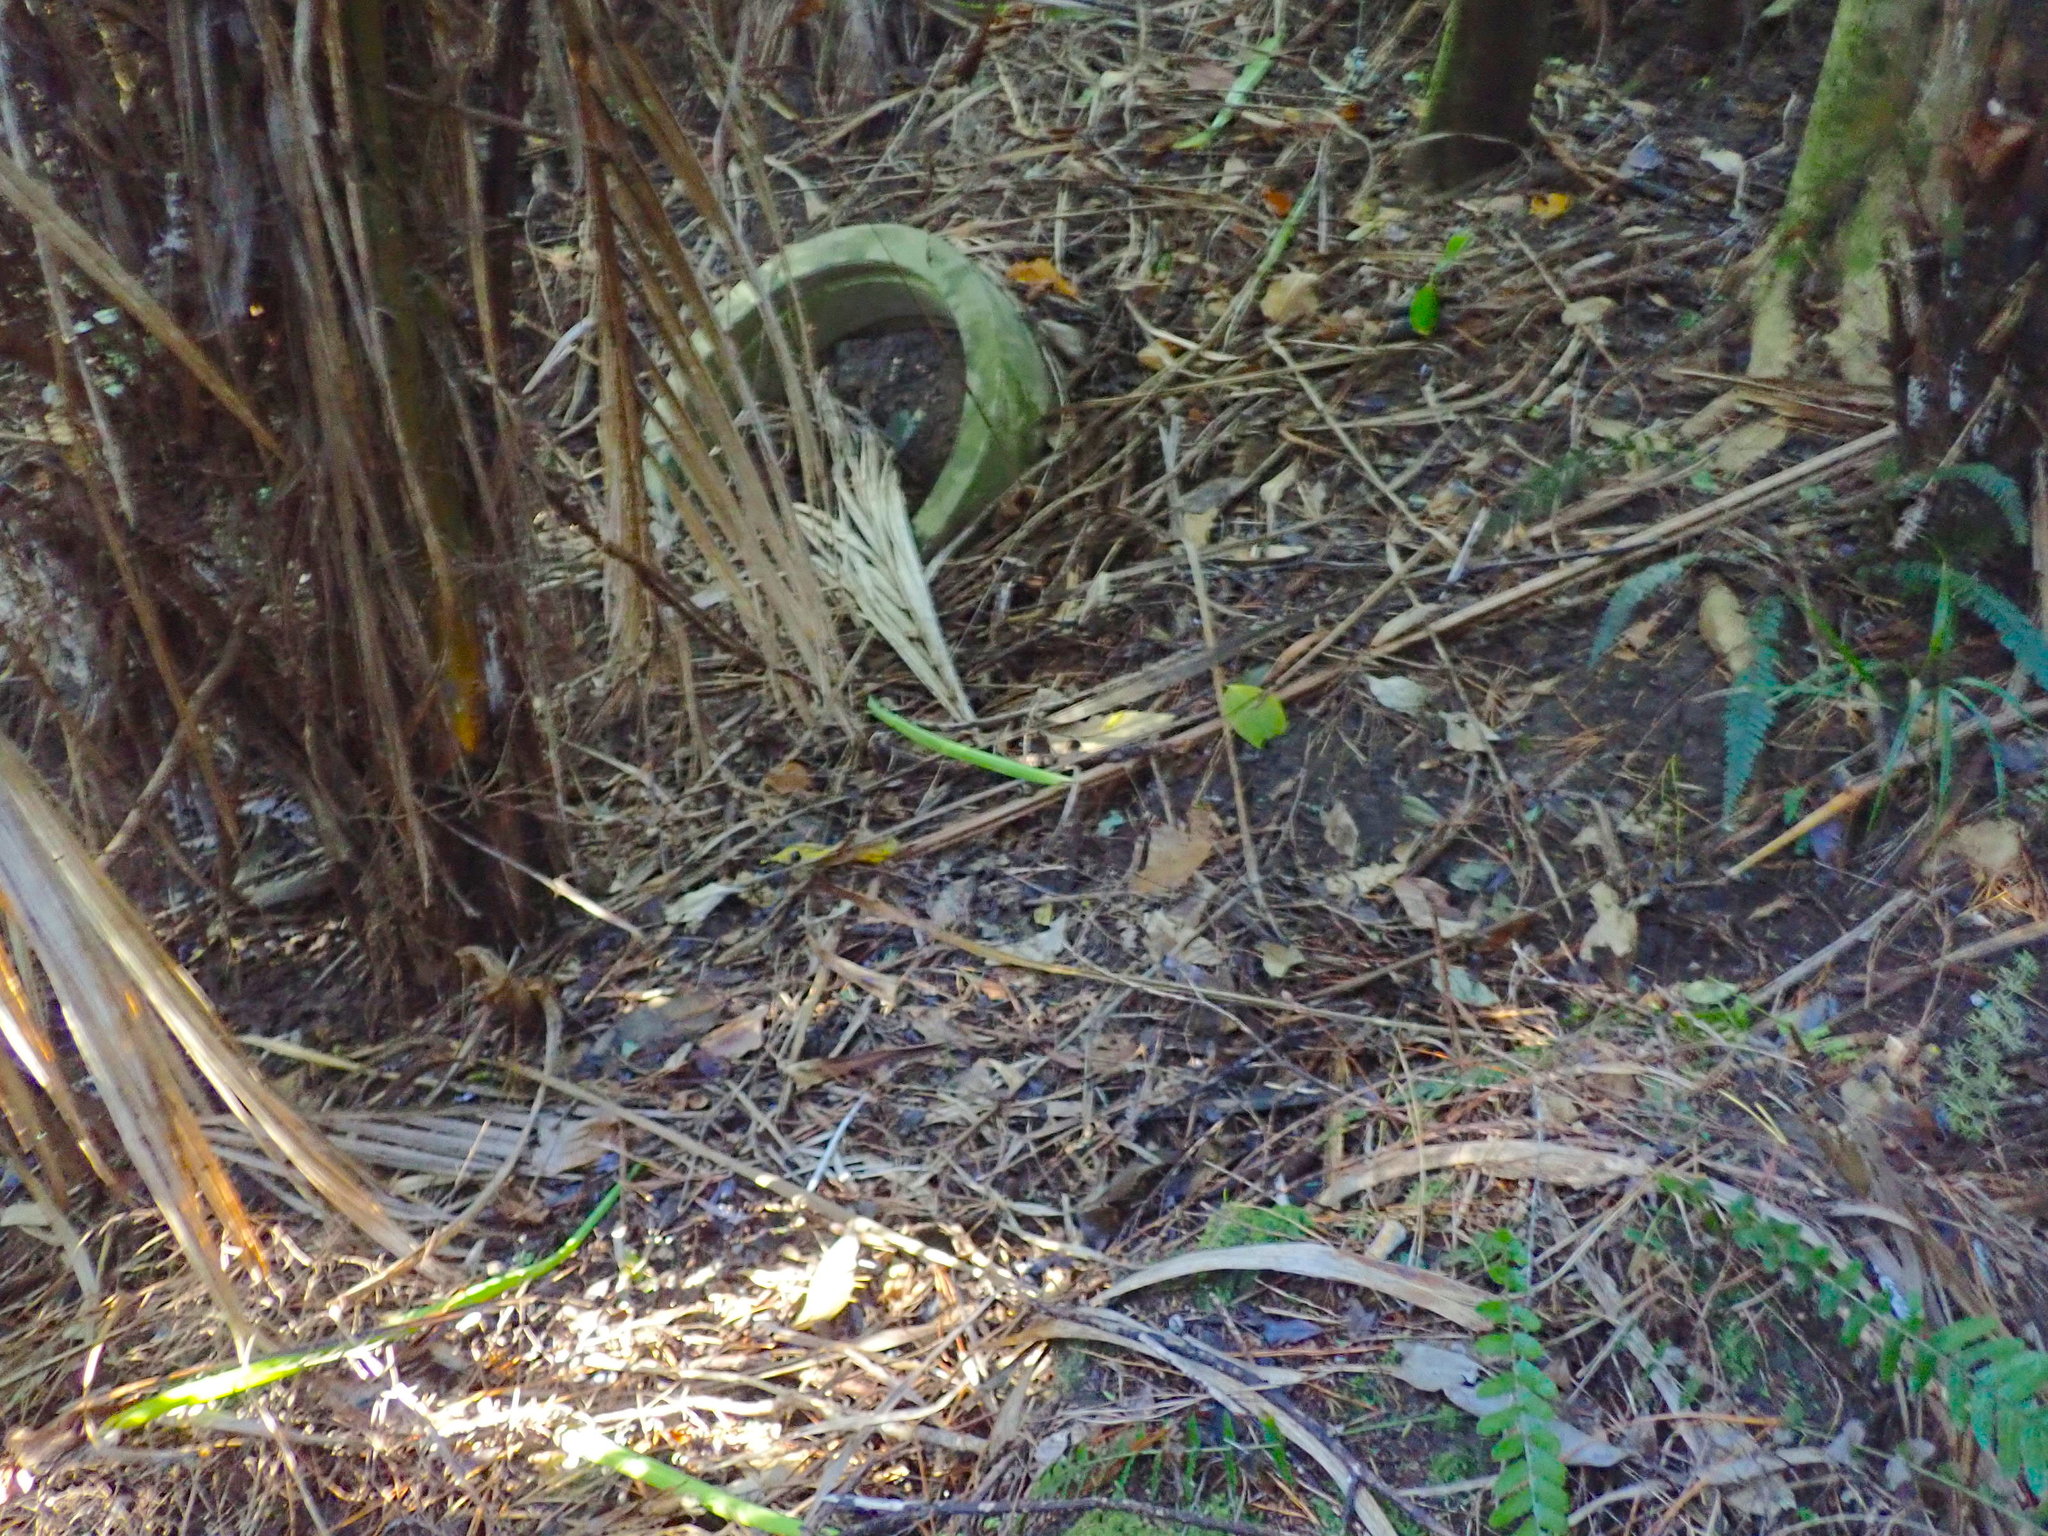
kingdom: Plantae
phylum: Tracheophyta
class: Polypodiopsida
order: Polypodiales
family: Blechnaceae
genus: Doodia
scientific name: Doodia australis
